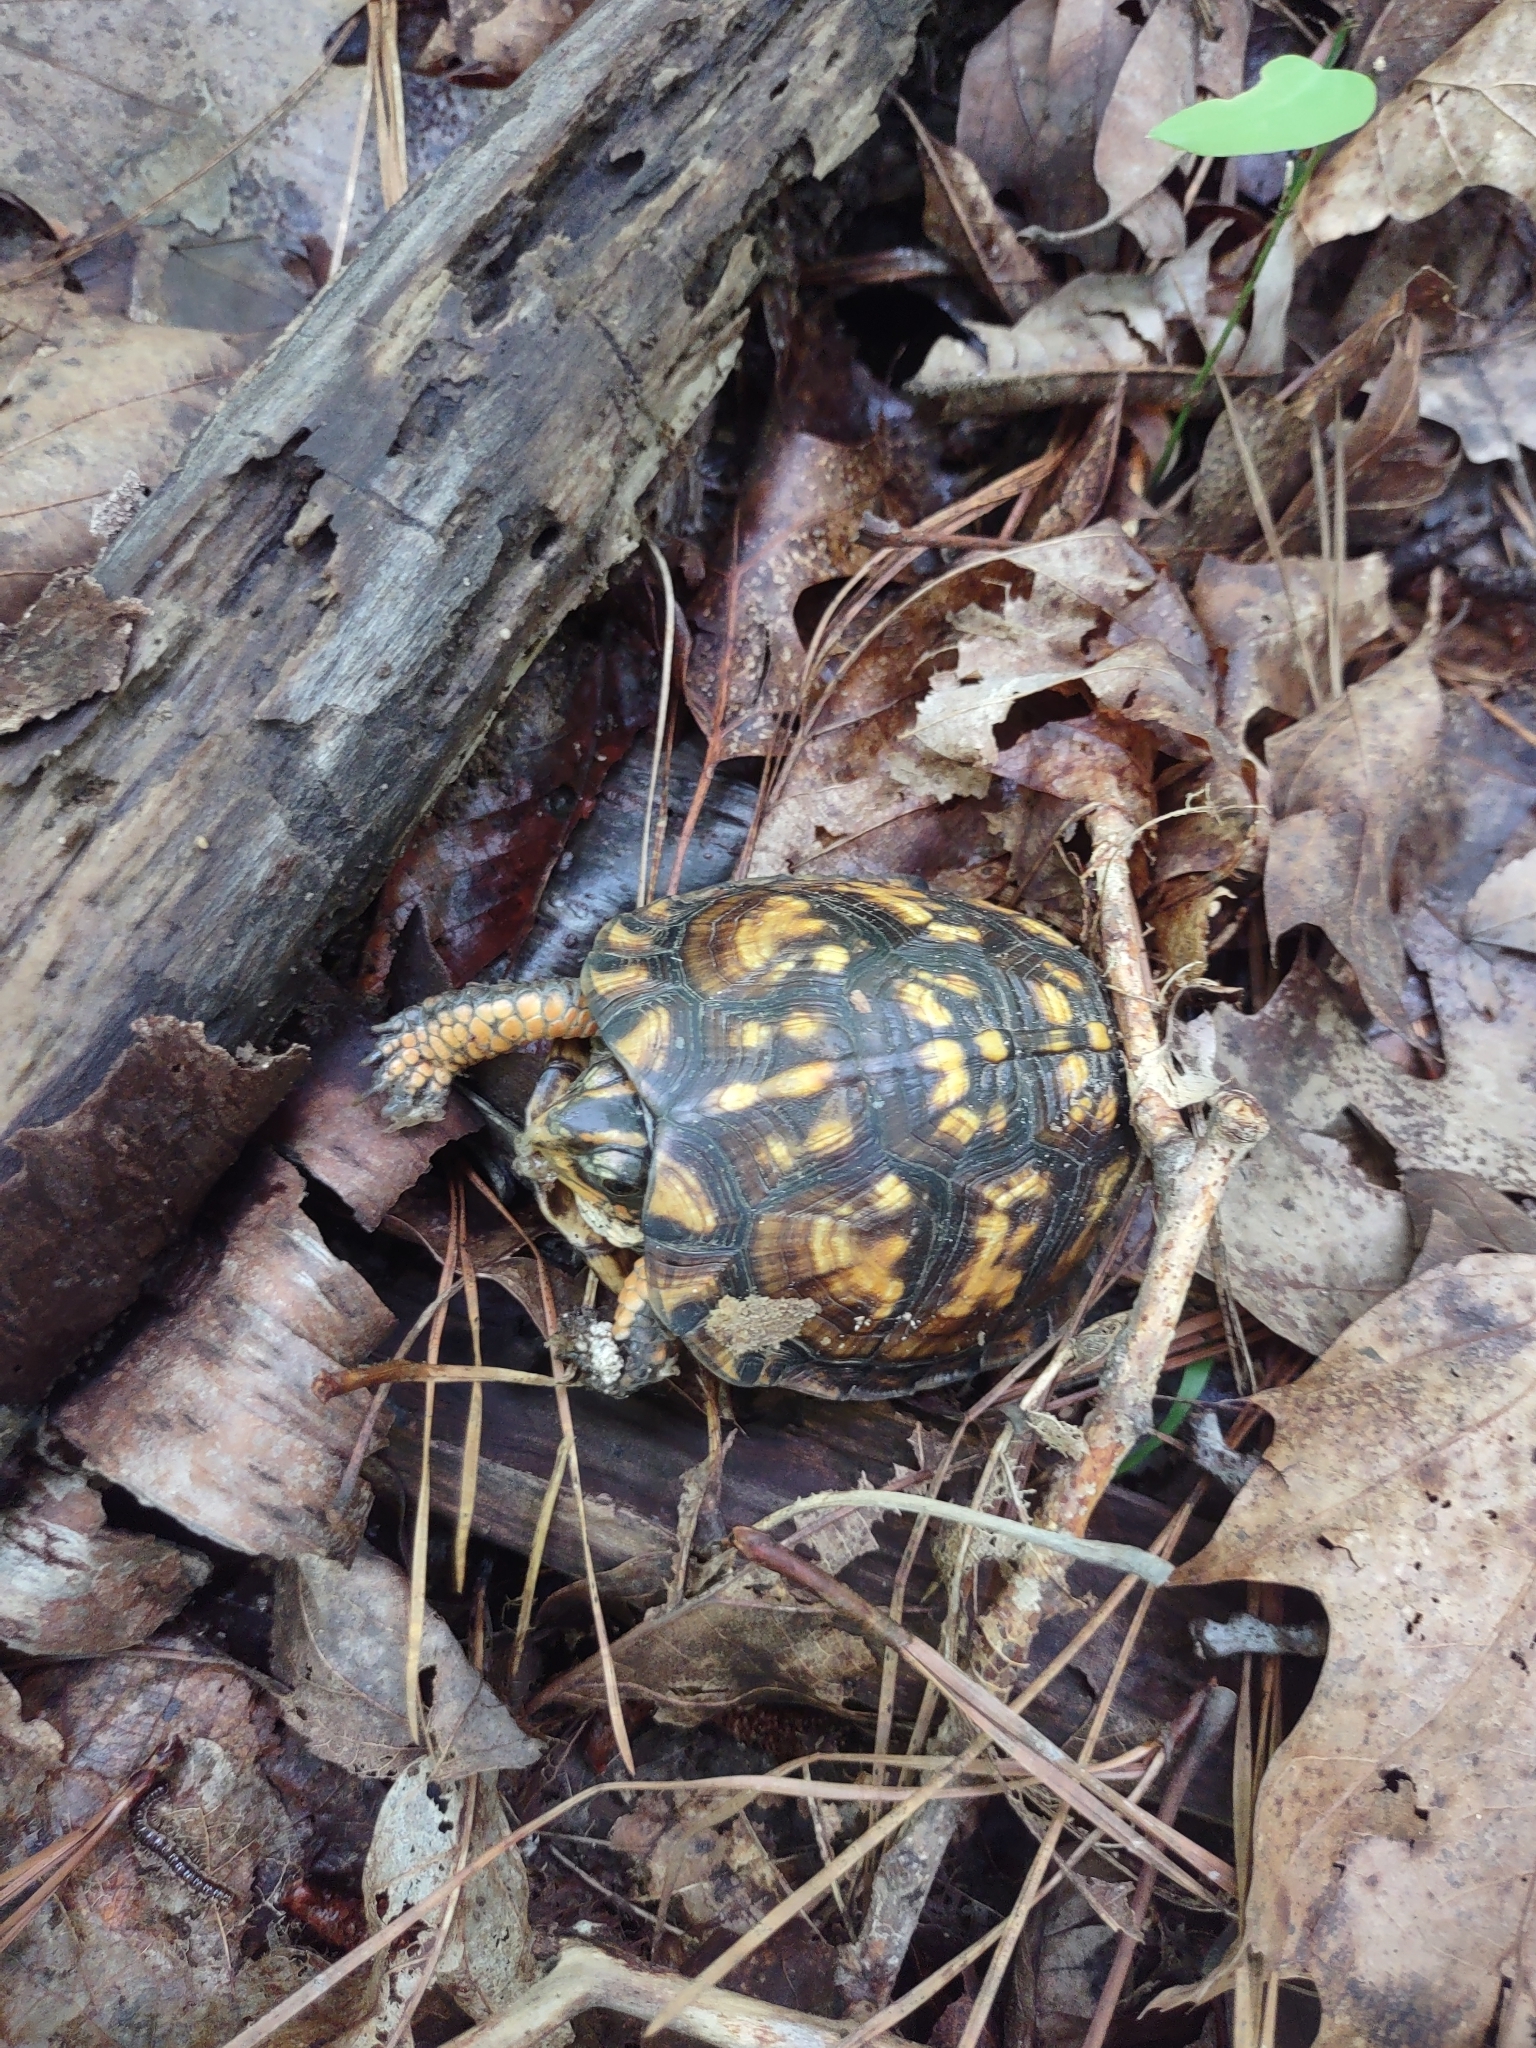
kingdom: Animalia
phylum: Chordata
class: Testudines
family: Emydidae
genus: Terrapene
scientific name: Terrapene carolina
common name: Common box turtle
